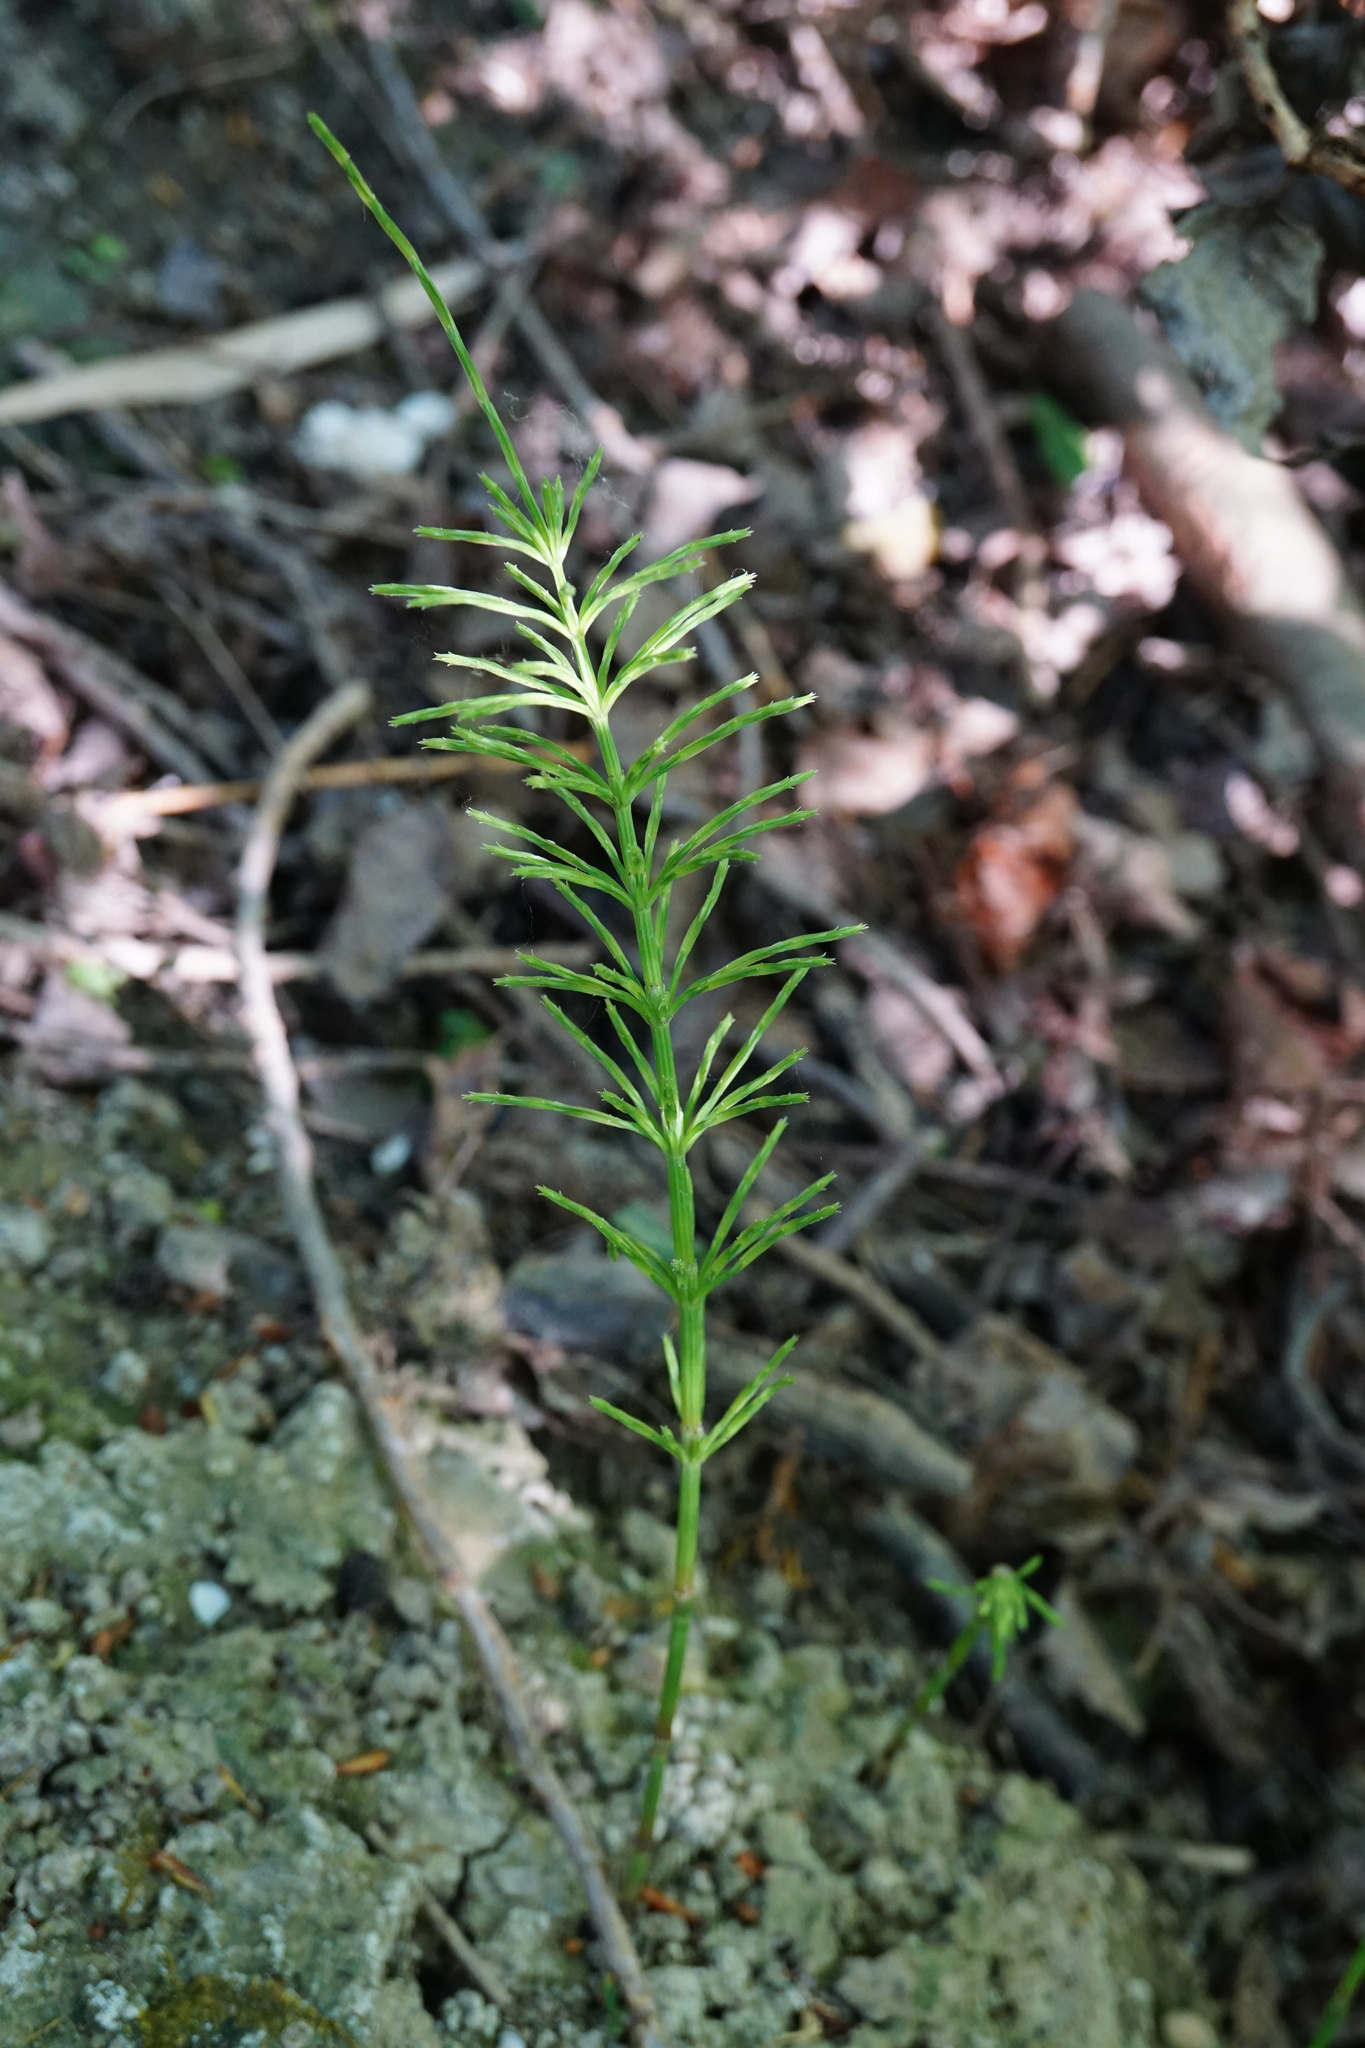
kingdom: Plantae
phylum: Tracheophyta
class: Polypodiopsida
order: Equisetales
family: Equisetaceae
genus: Equisetum
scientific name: Equisetum arvense
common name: Field horsetail
